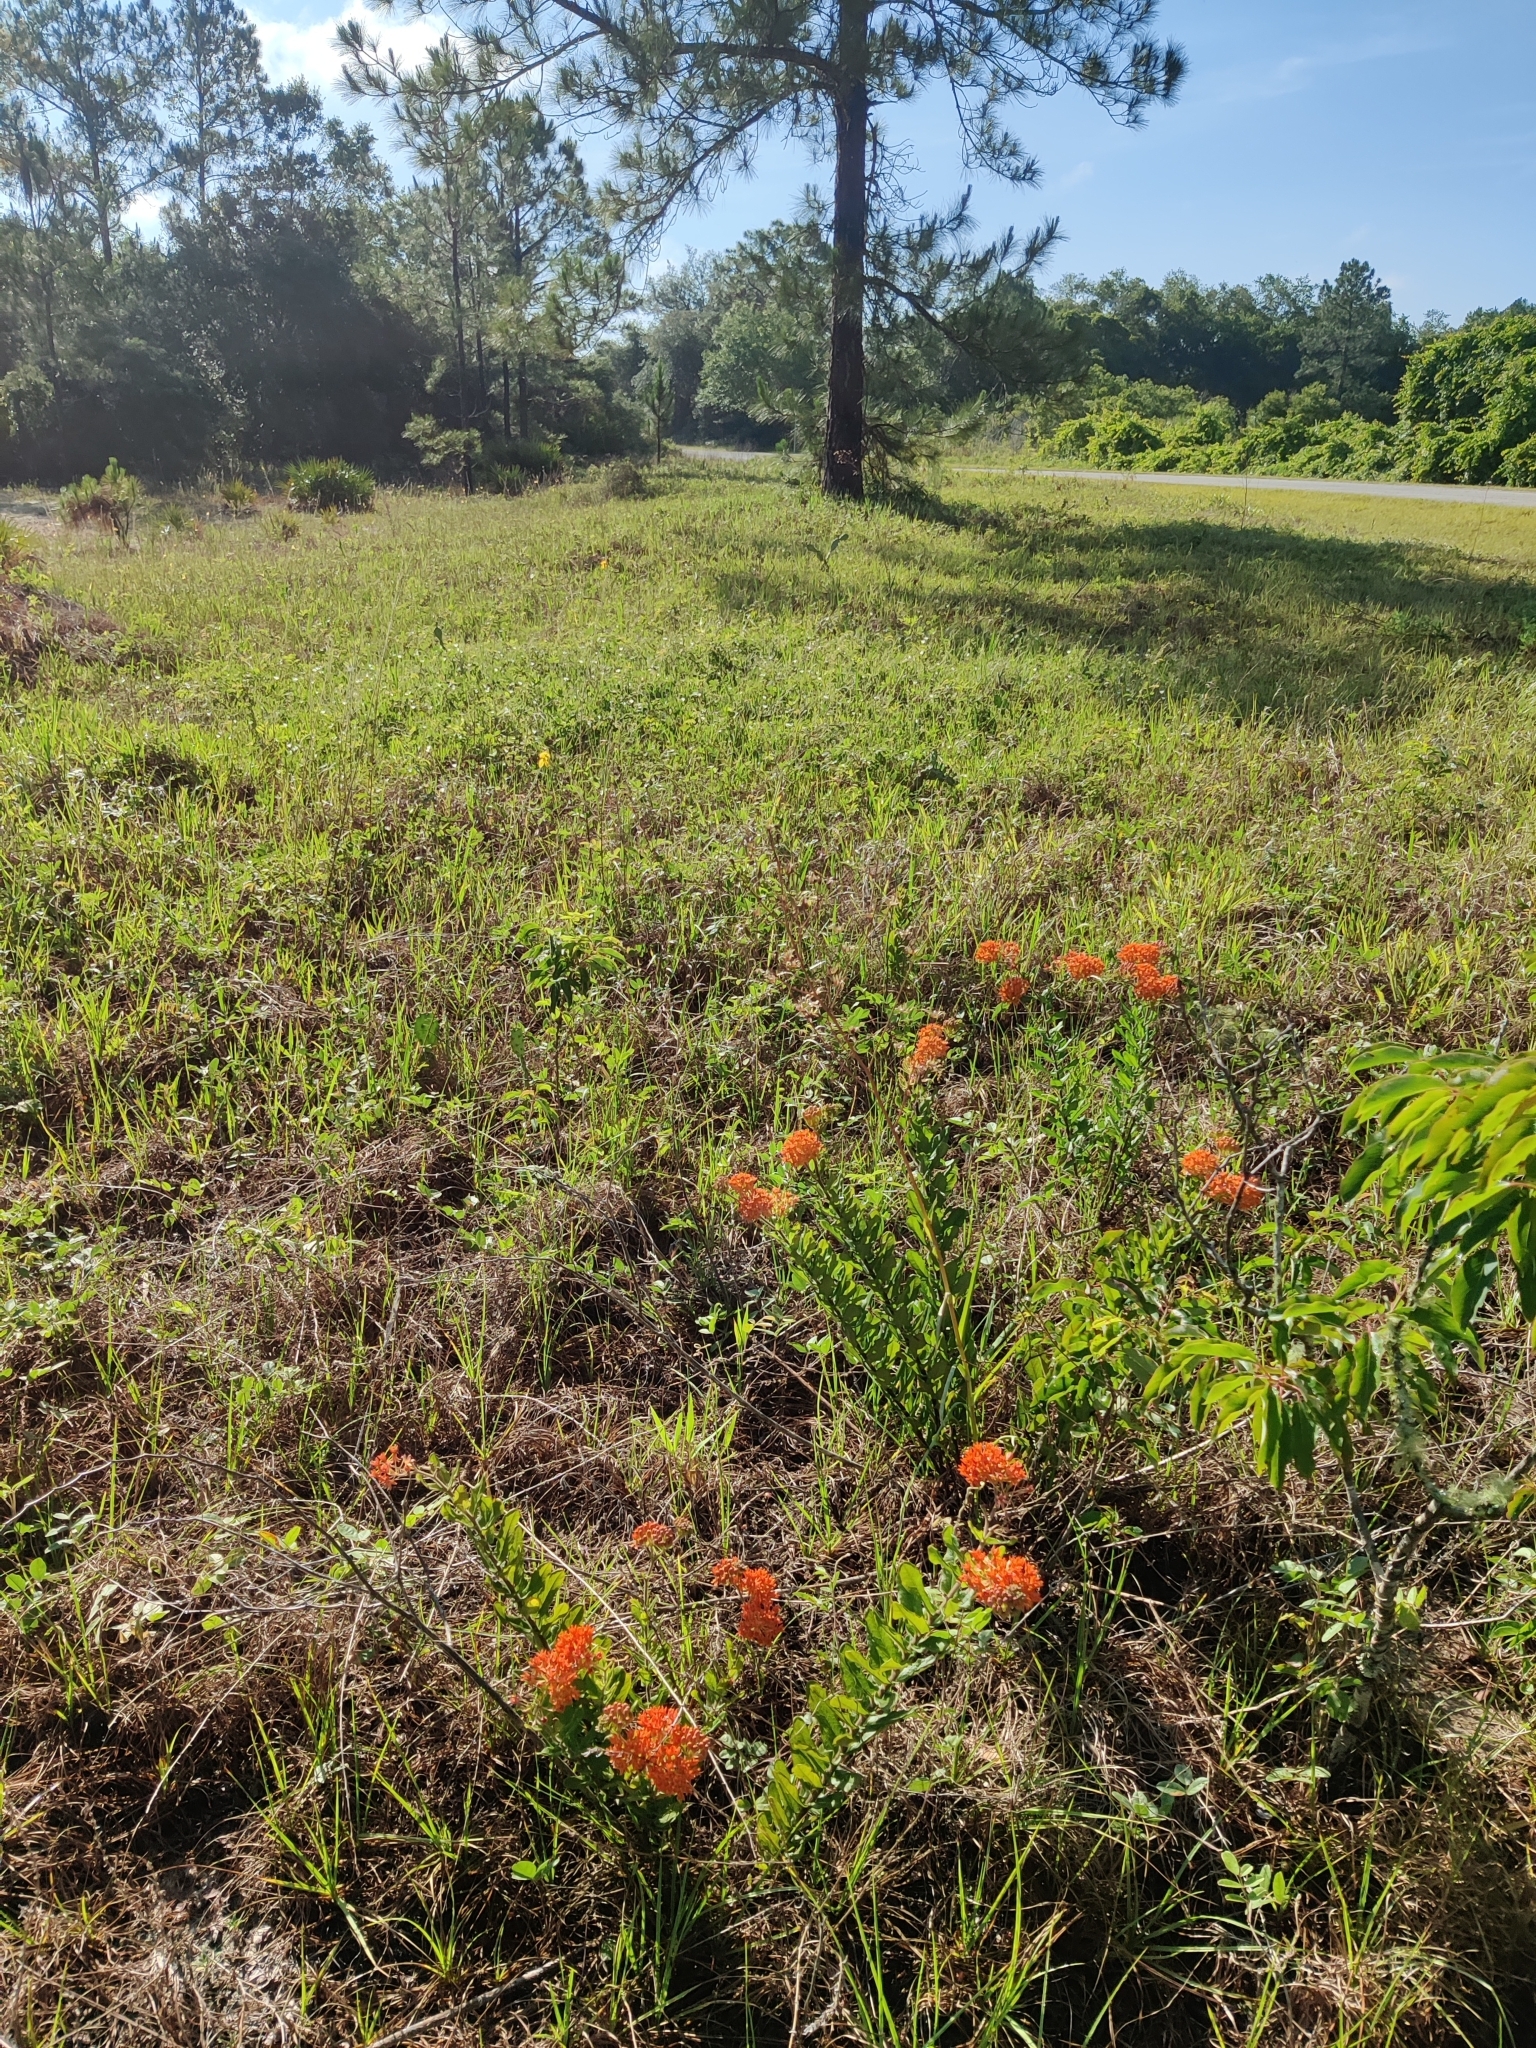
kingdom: Plantae
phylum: Tracheophyta
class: Magnoliopsida
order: Gentianales
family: Apocynaceae
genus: Asclepias
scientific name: Asclepias tuberosa
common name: Butterfly milkweed
